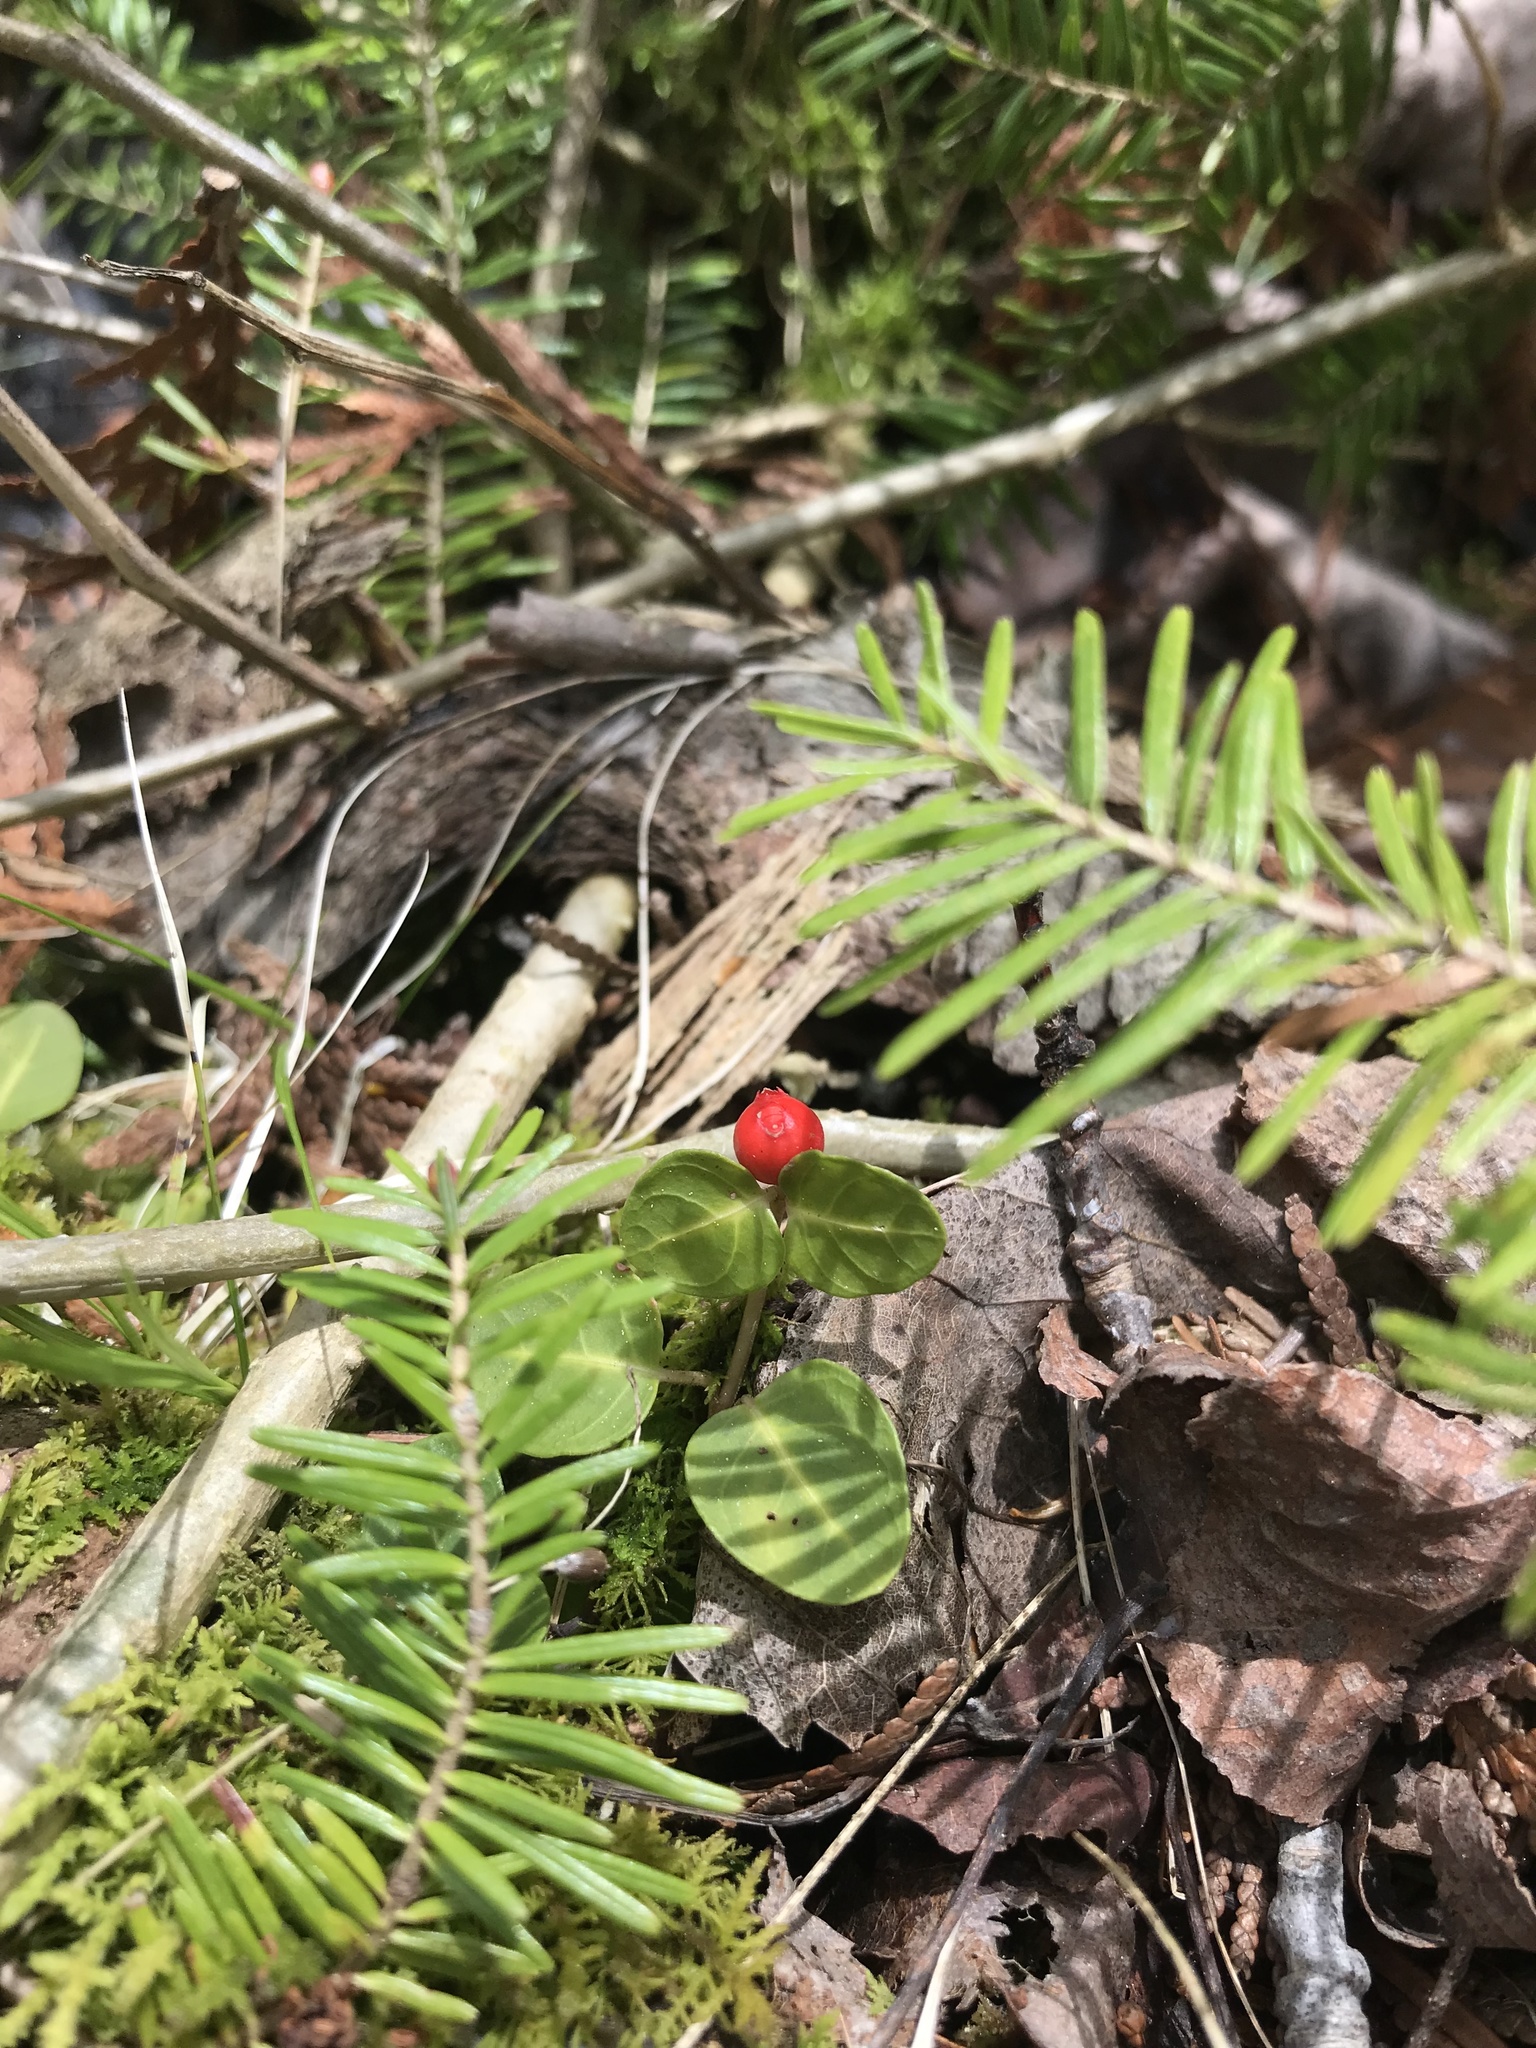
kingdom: Plantae
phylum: Tracheophyta
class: Magnoliopsida
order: Gentianales
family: Rubiaceae
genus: Mitchella
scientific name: Mitchella repens
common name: Partridge-berry
